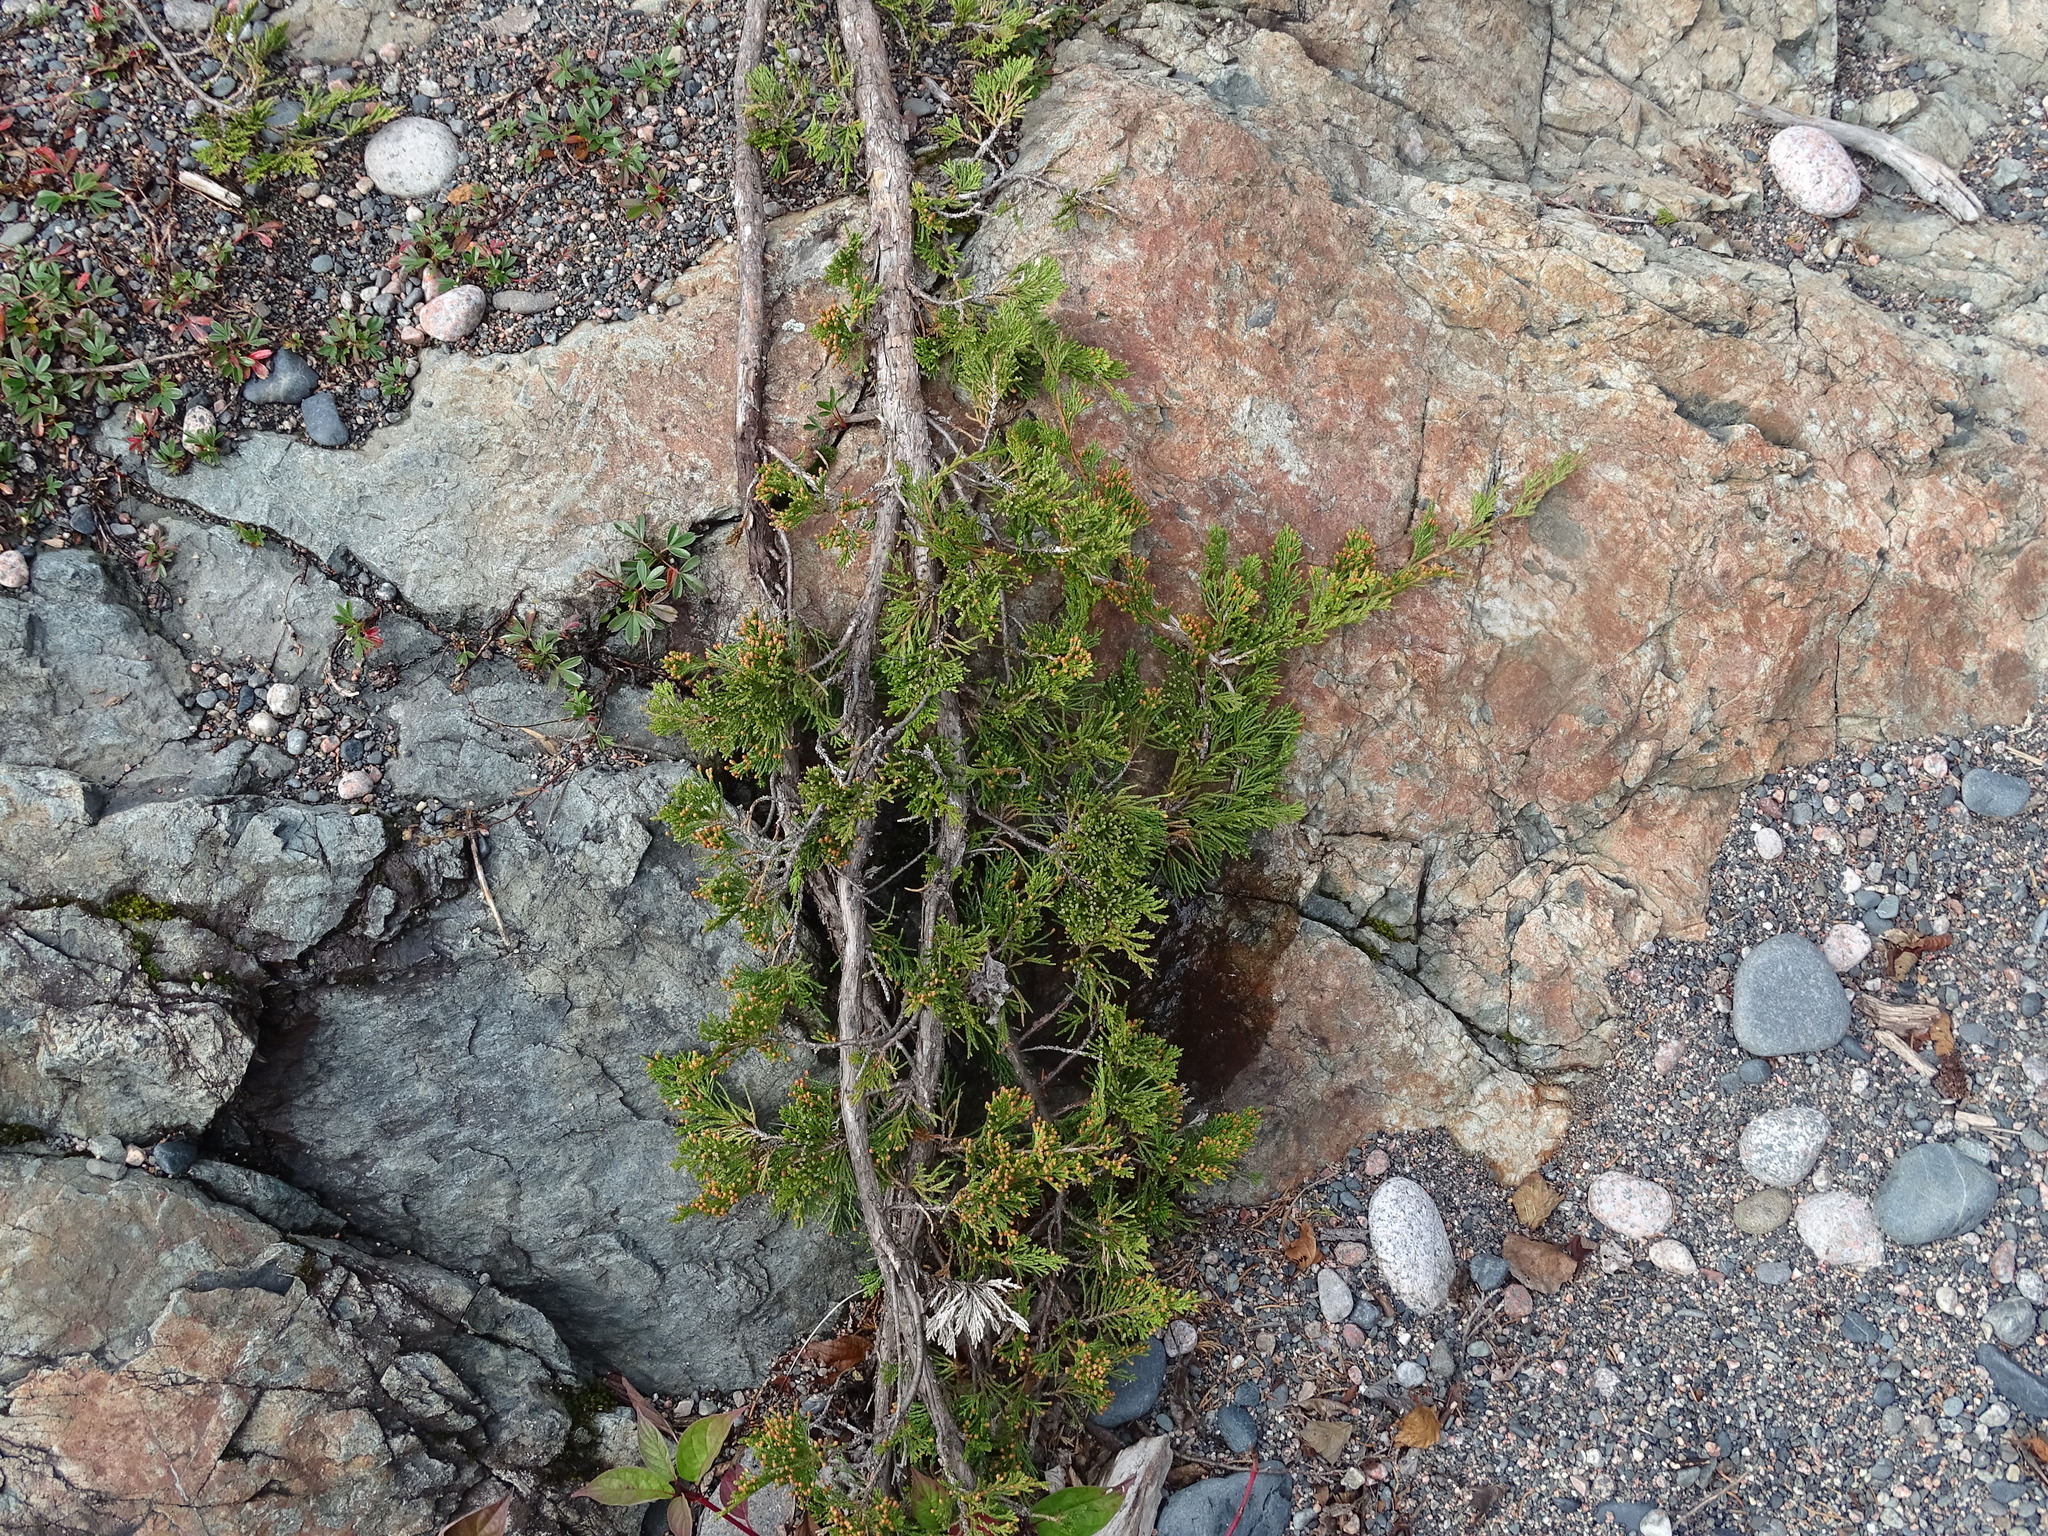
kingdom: Plantae
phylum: Tracheophyta
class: Pinopsida
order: Pinales
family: Cupressaceae
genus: Juniperus
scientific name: Juniperus horizontalis
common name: Creeping juniper
